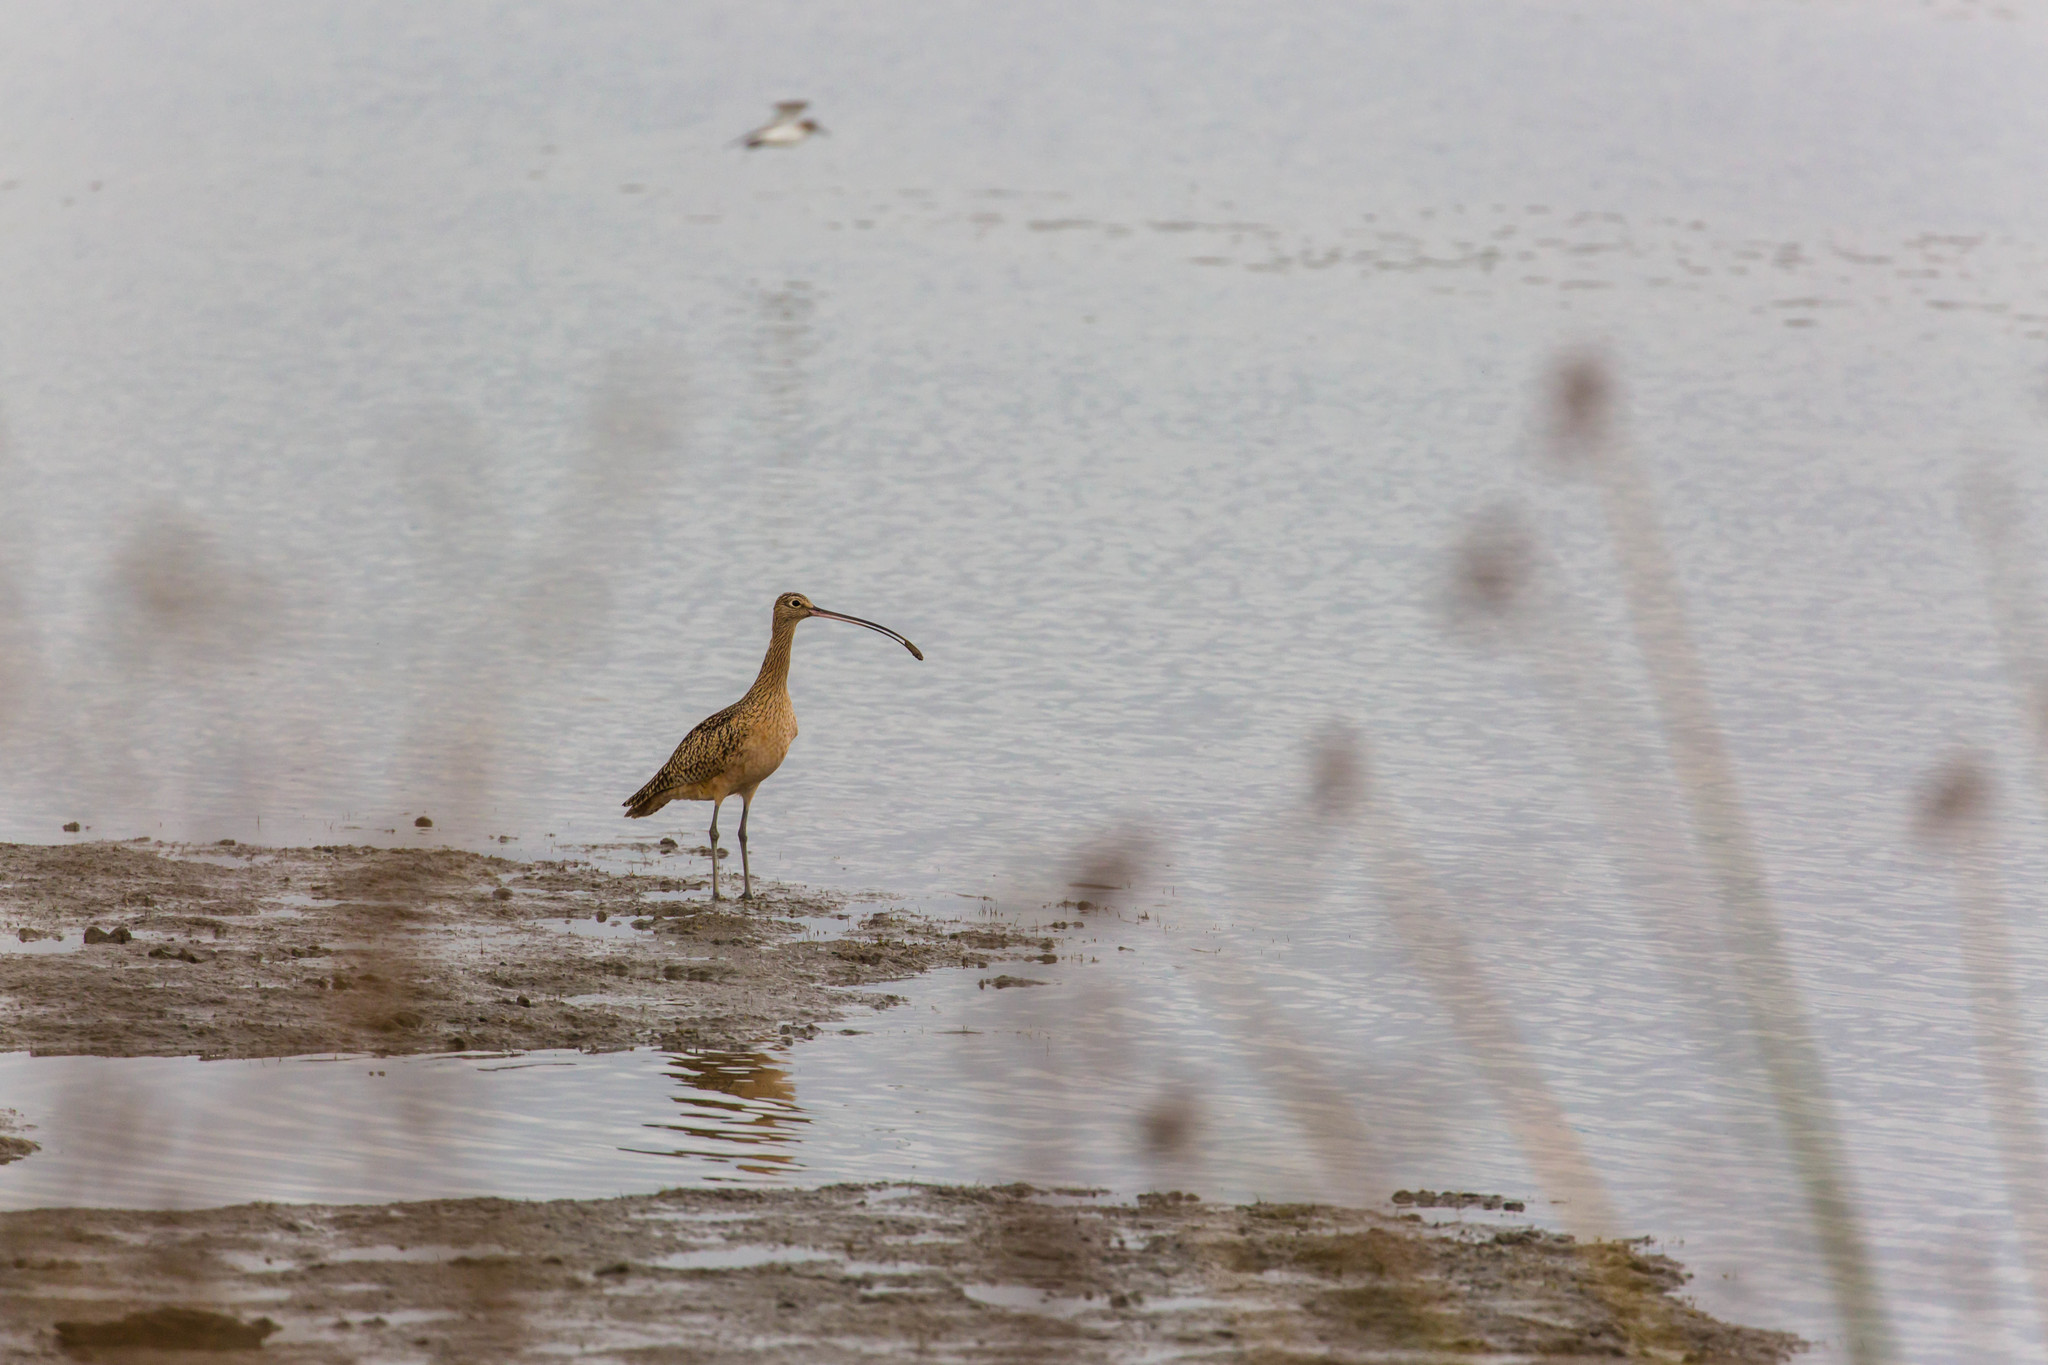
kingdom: Animalia
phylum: Chordata
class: Aves
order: Charadriiformes
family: Scolopacidae
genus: Numenius
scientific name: Numenius americanus
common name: Long-billed curlew
